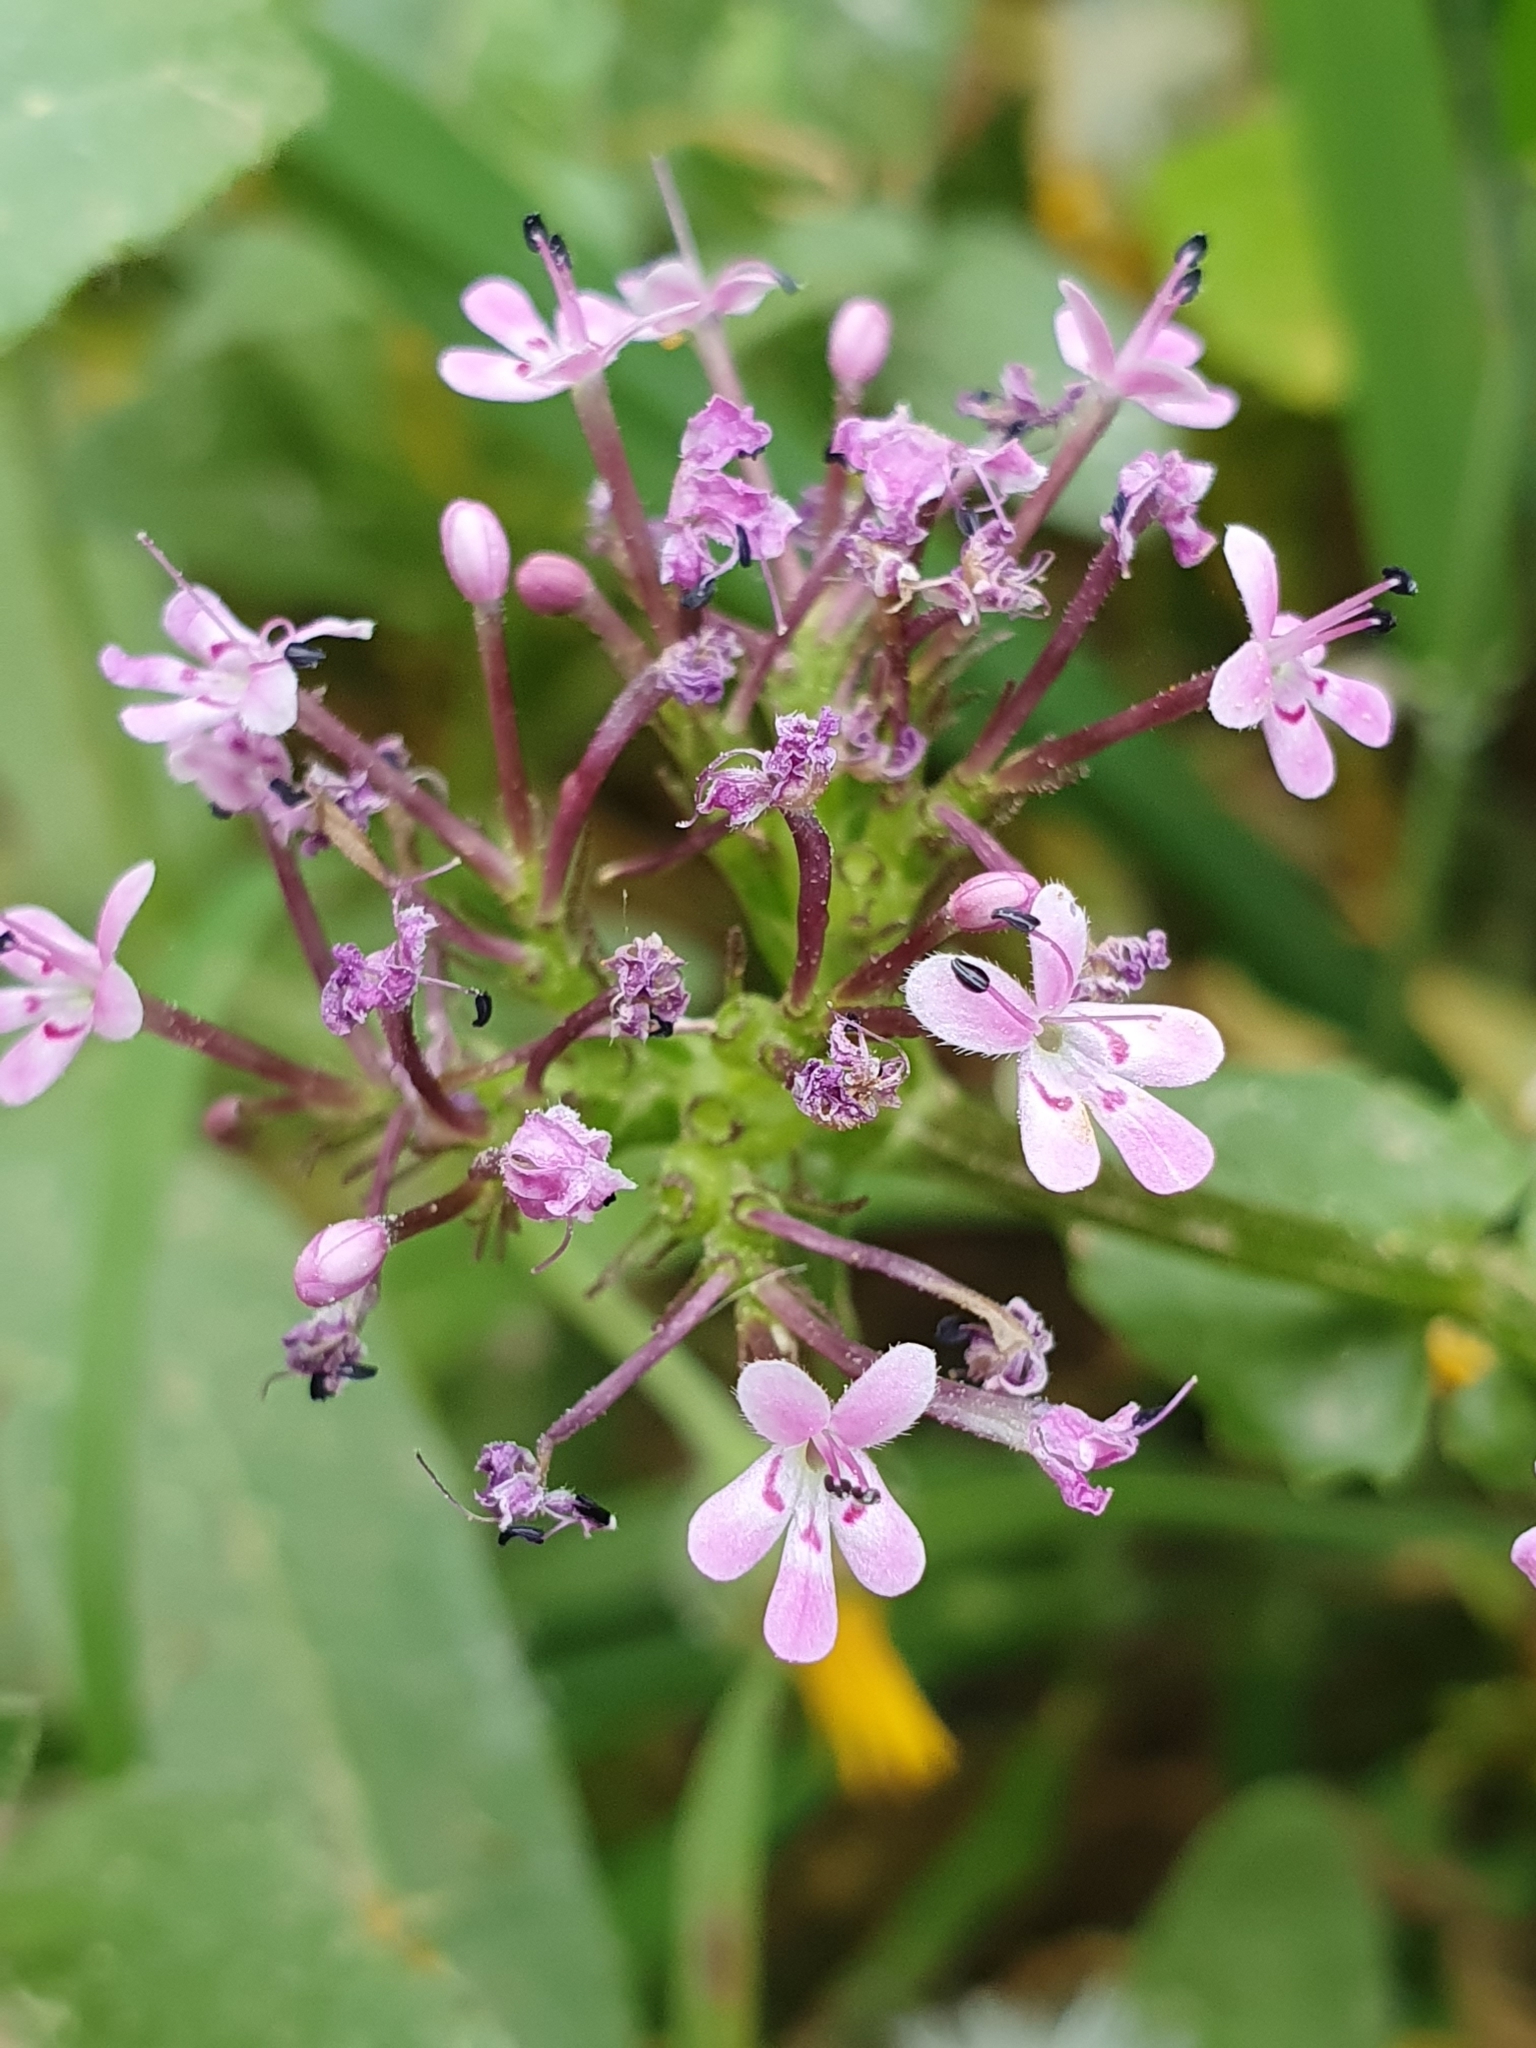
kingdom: Plantae
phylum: Tracheophyta
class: Magnoliopsida
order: Dipsacales
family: Caprifoliaceae
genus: Fedia
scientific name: Fedia graciliflora
